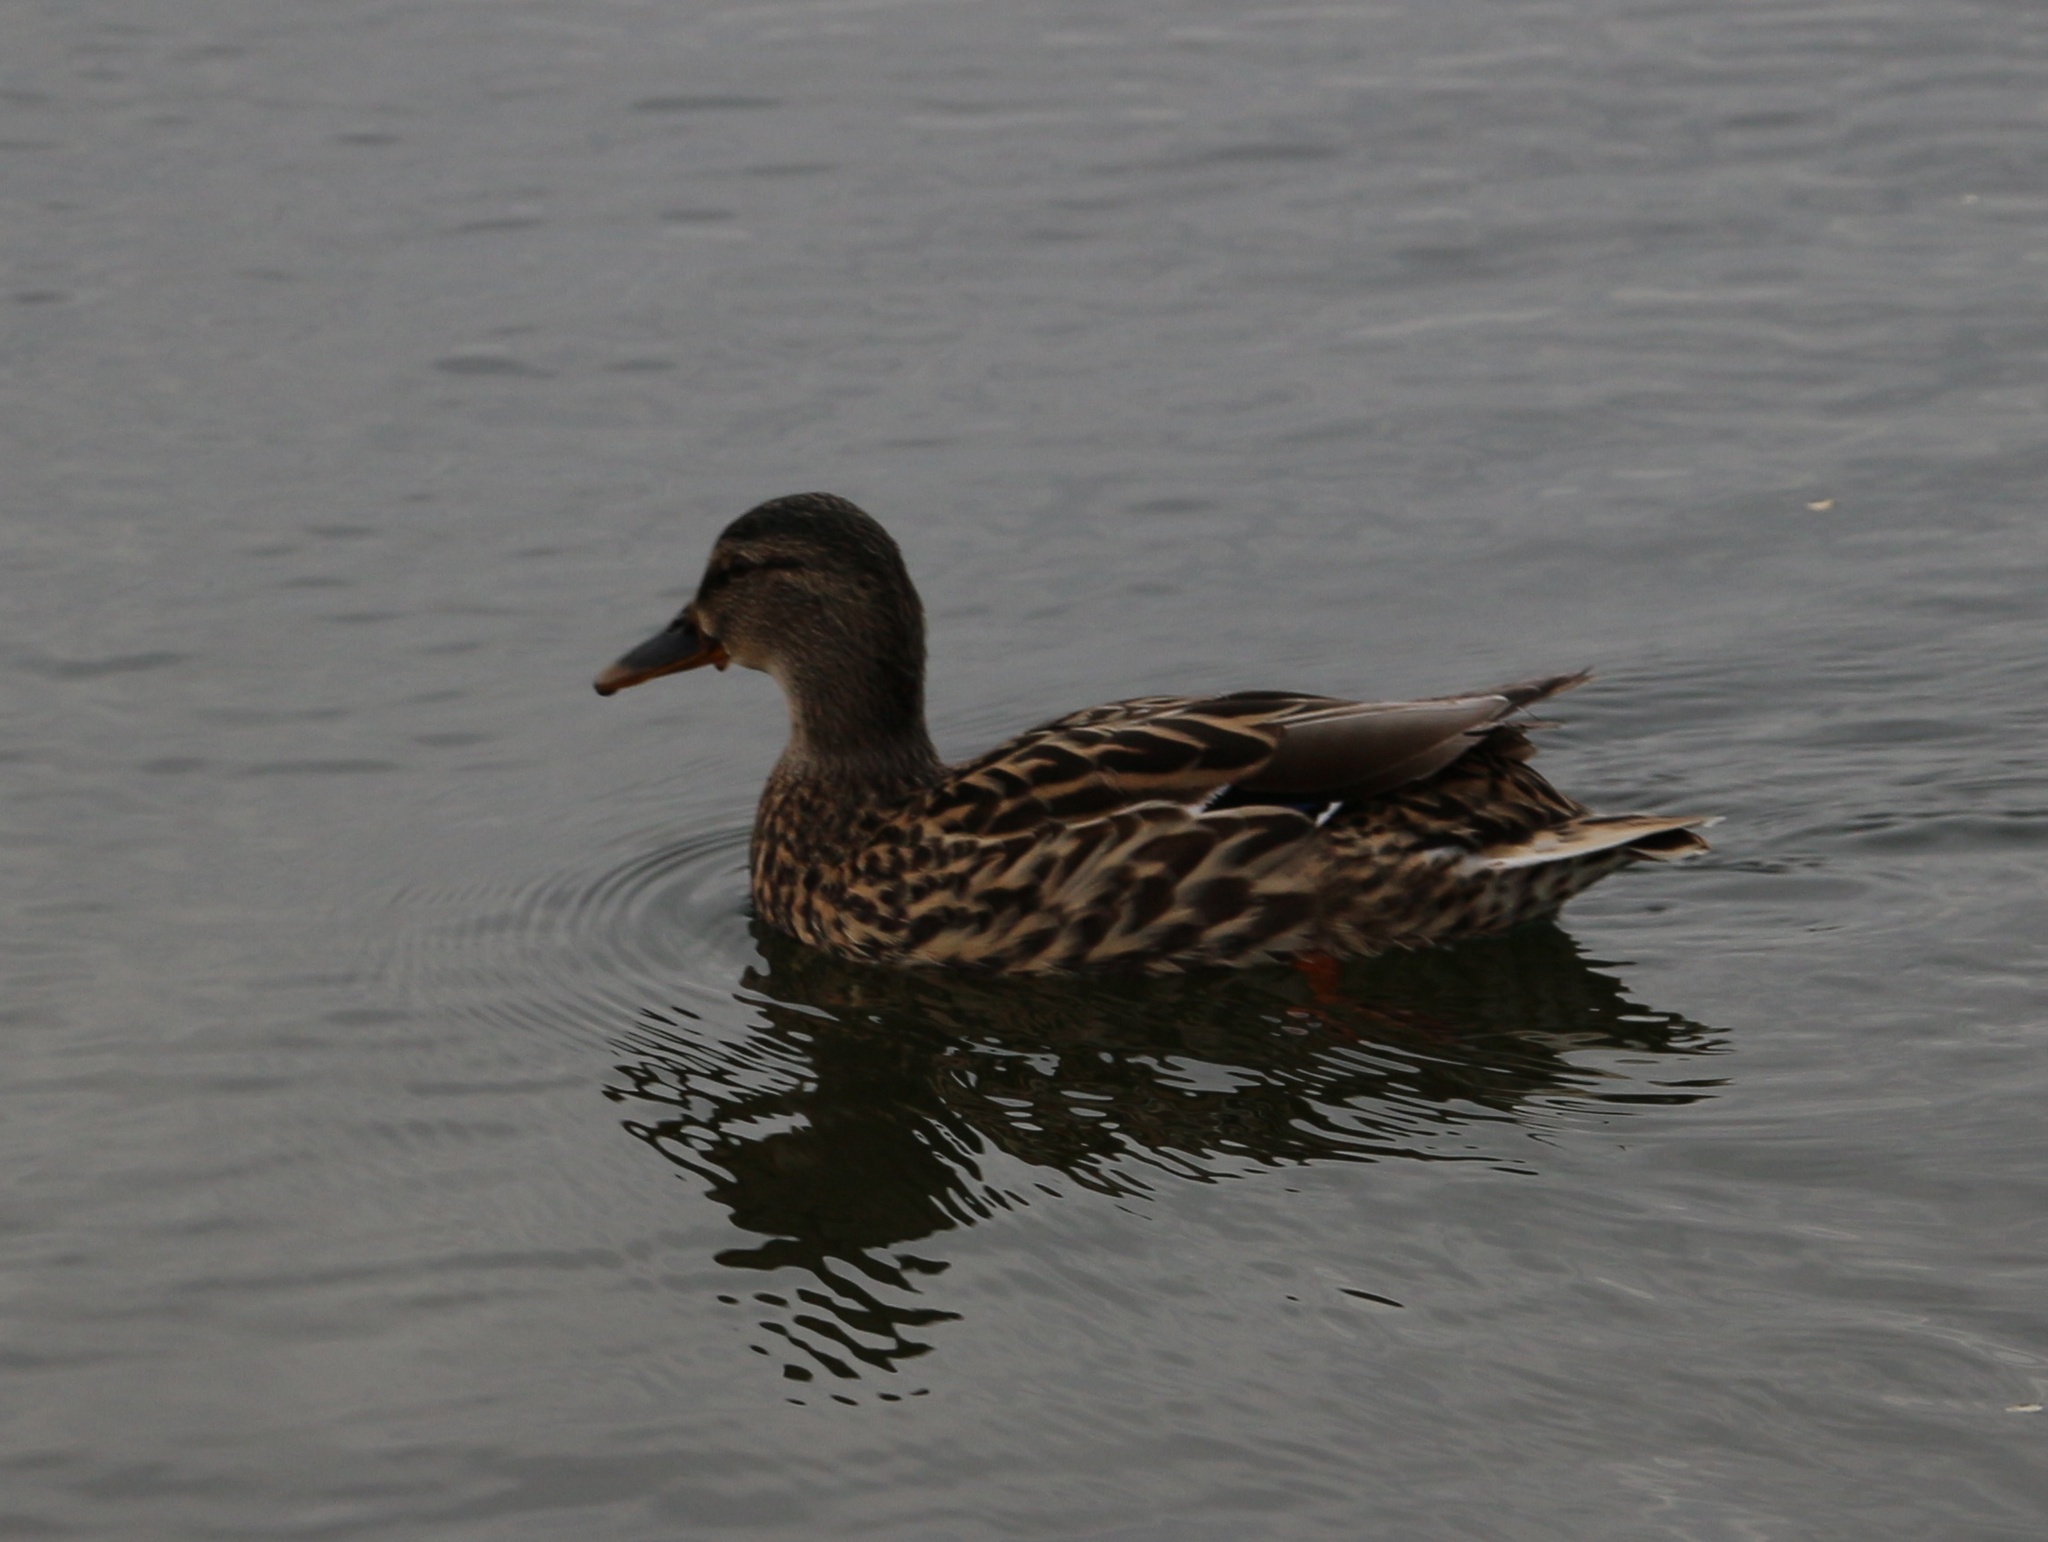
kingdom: Animalia
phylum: Chordata
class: Aves
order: Anseriformes
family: Anatidae
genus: Anas
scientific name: Anas platyrhynchos
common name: Mallard
